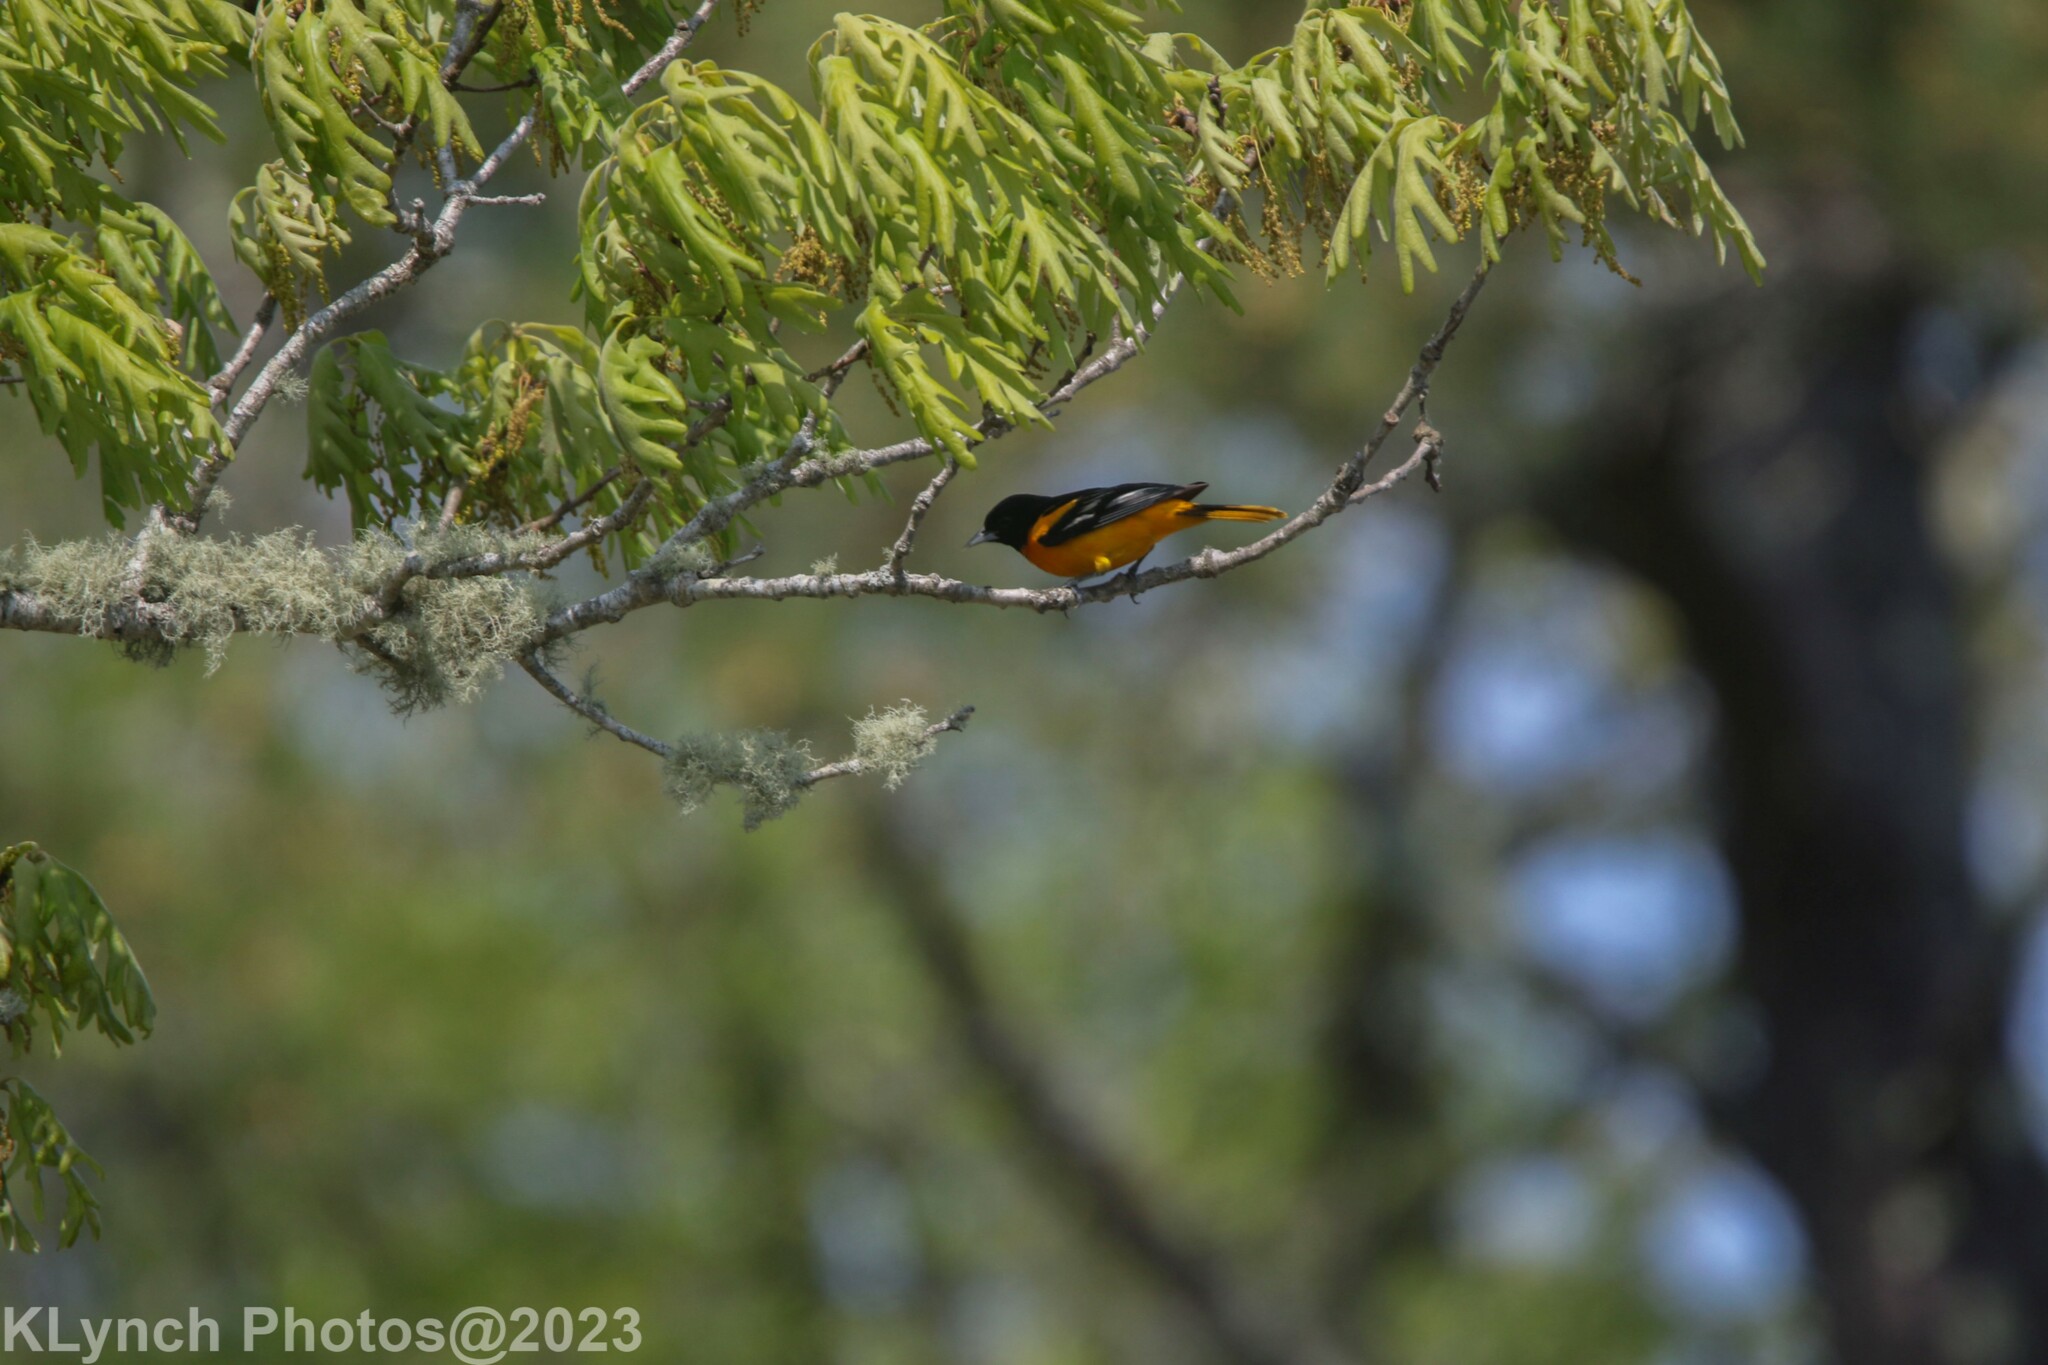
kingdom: Animalia
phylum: Chordata
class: Aves
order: Passeriformes
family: Icteridae
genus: Icterus
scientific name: Icterus galbula
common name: Baltimore oriole
